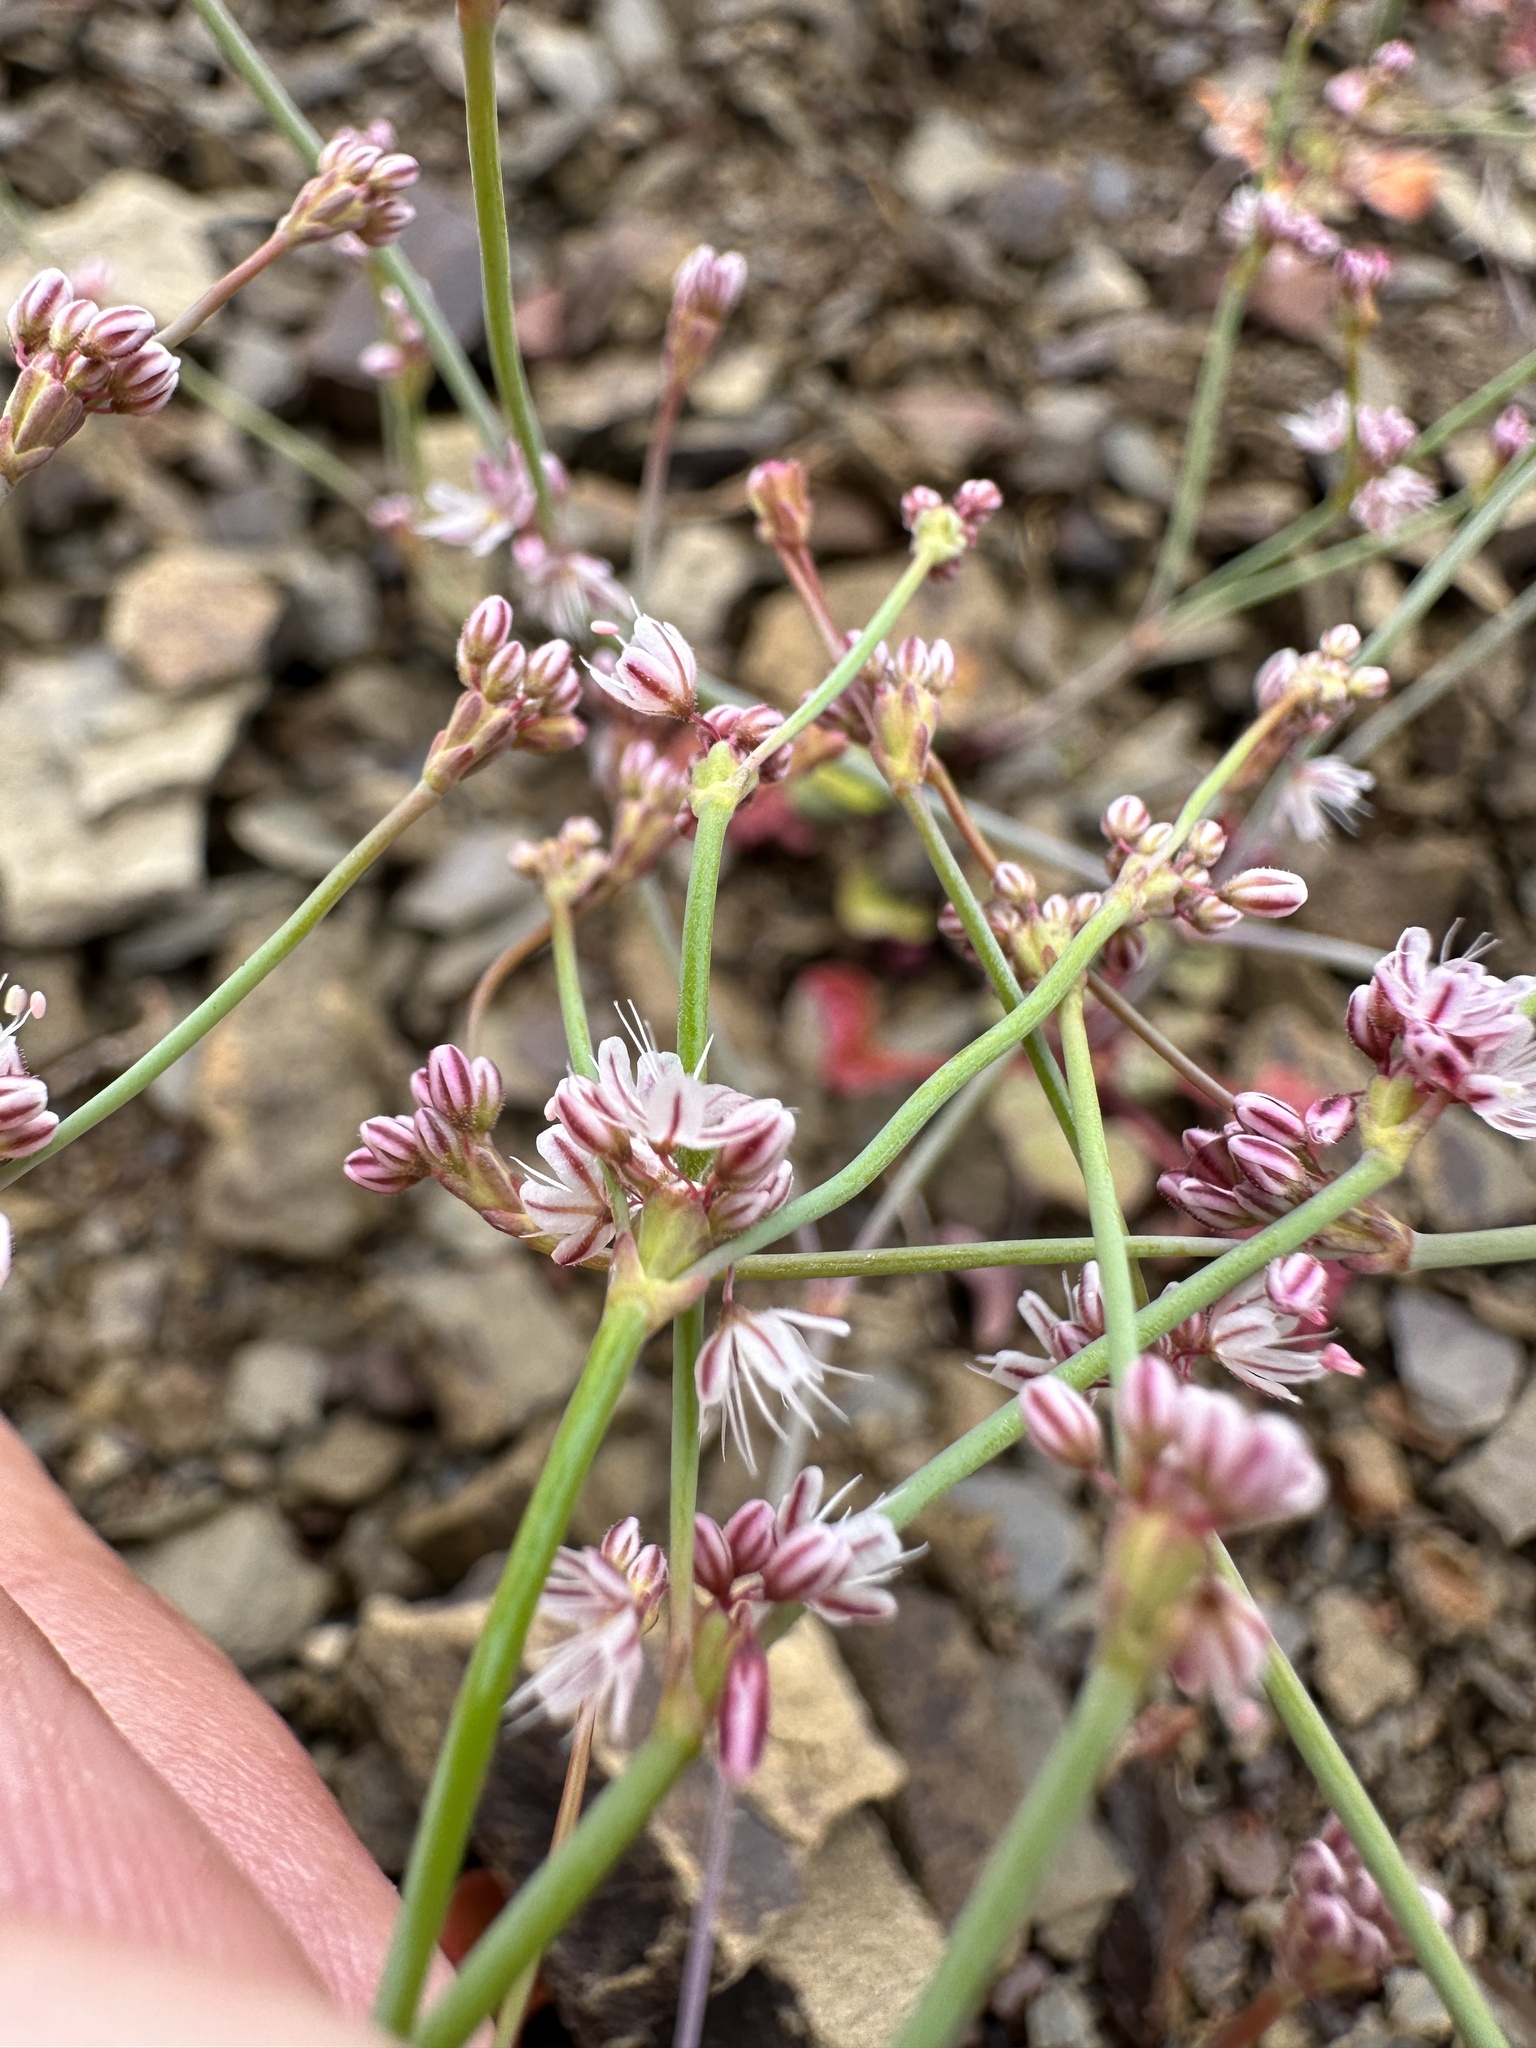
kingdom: Plantae
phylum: Tracheophyta
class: Magnoliopsida
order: Caryophyllales
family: Polygonaceae
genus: Eriogonum
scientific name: Eriogonum covilleanum
